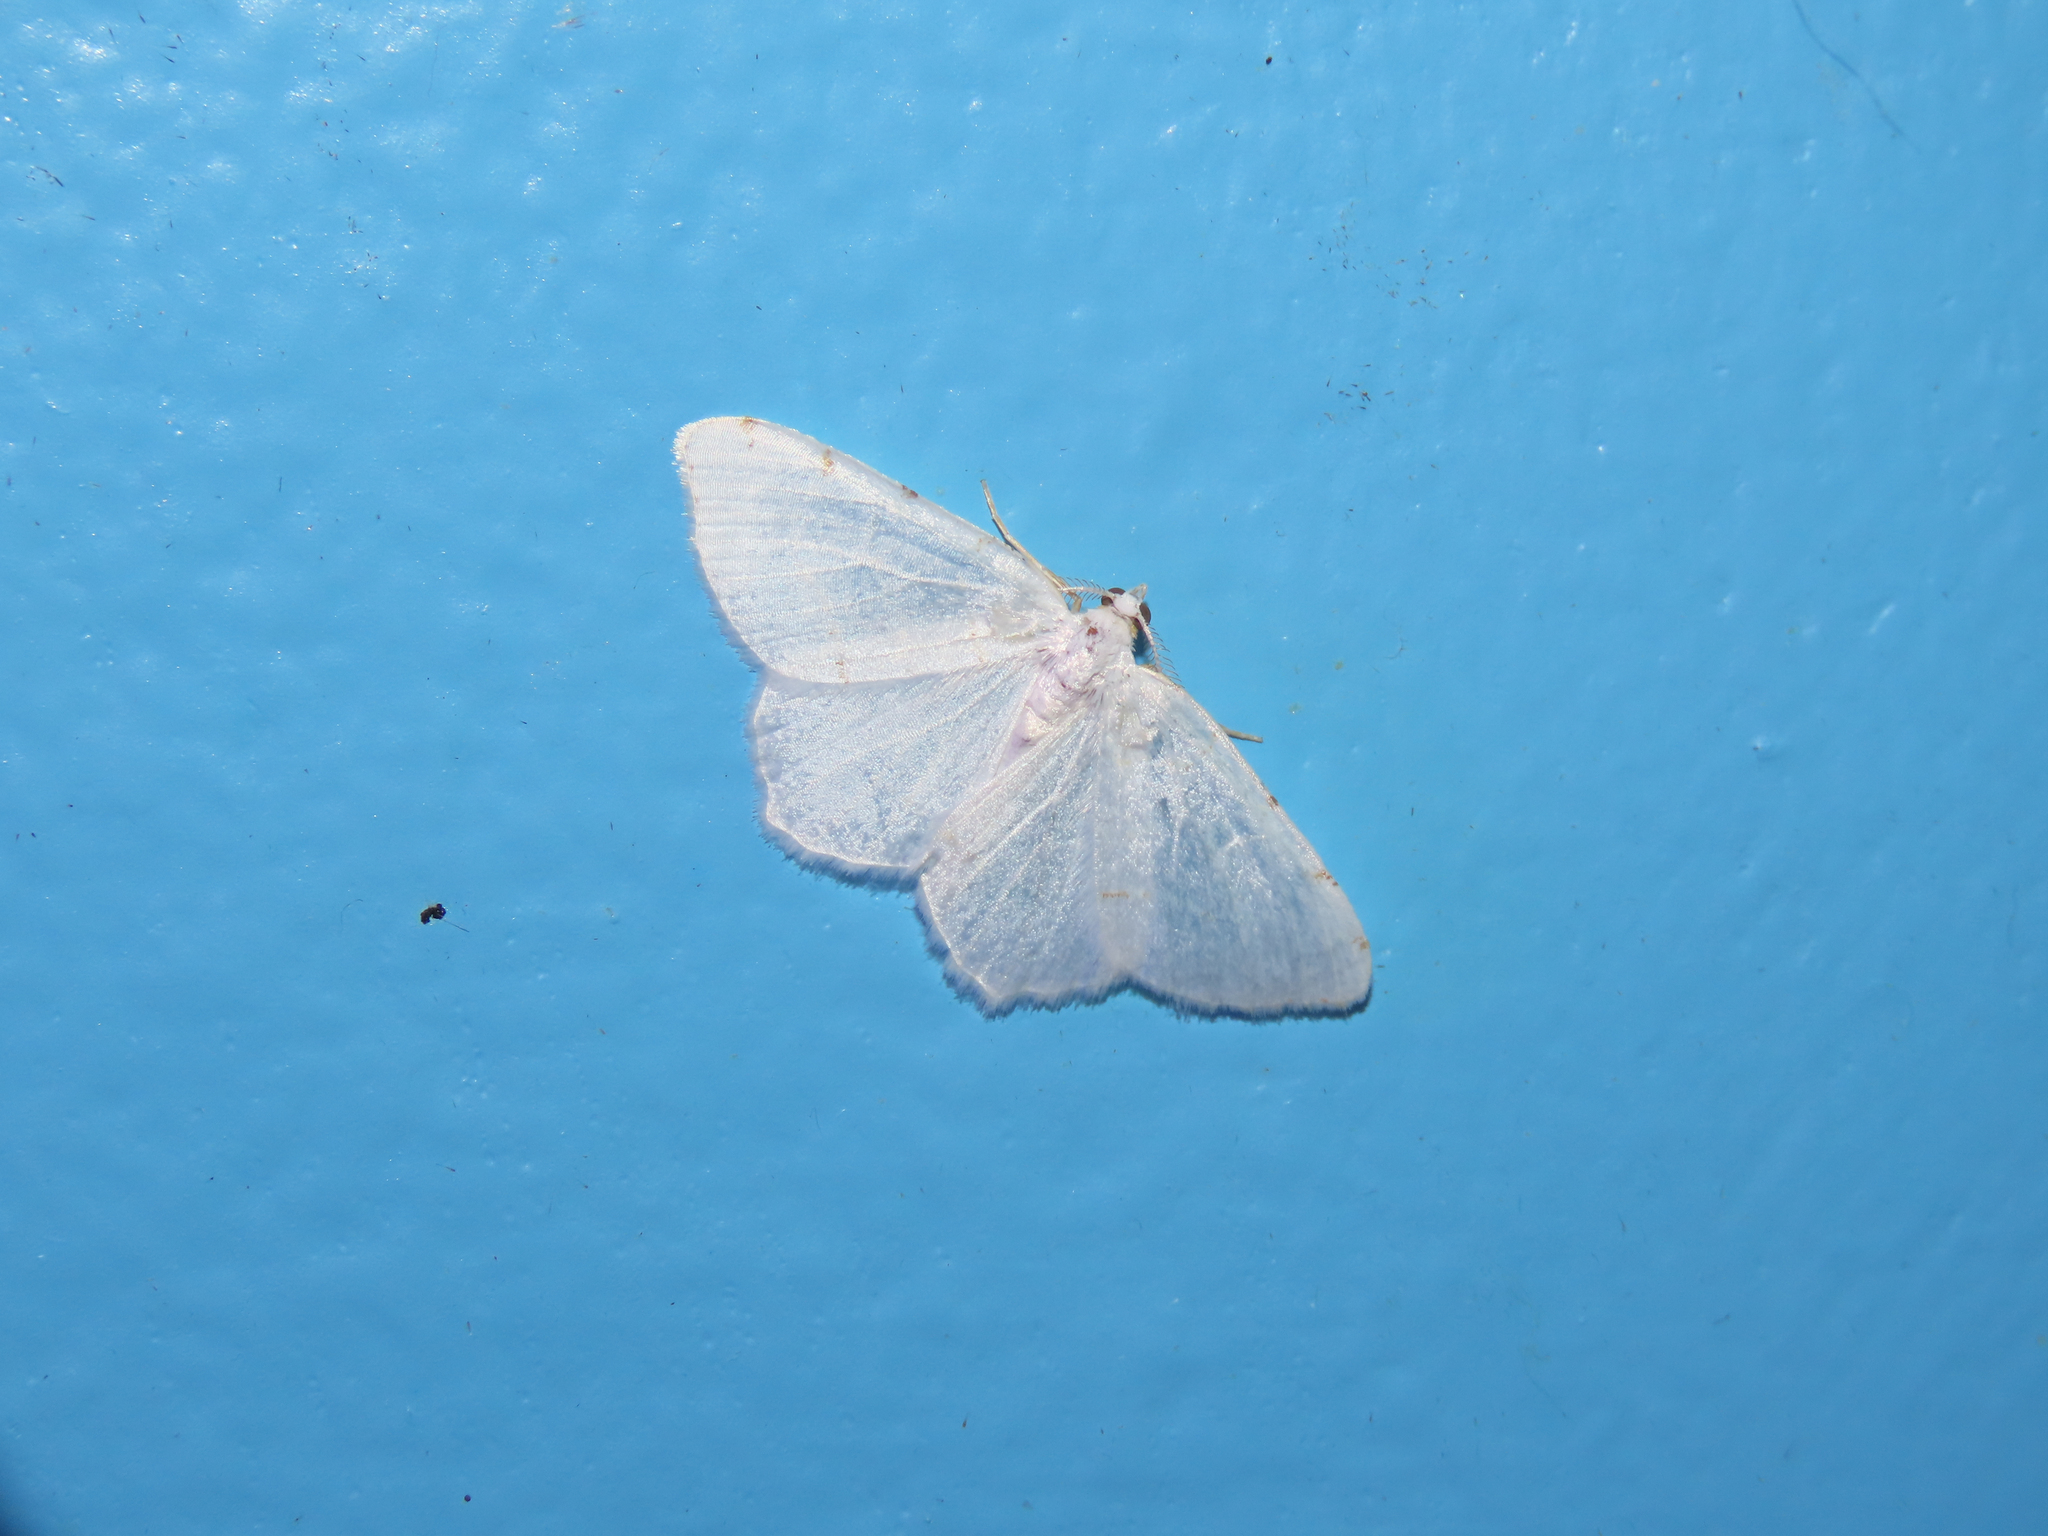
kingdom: Animalia
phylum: Arthropoda
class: Insecta
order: Lepidoptera
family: Geometridae
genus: Macaria
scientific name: Macaria pustularia
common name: Lesser maple spanworm moth
